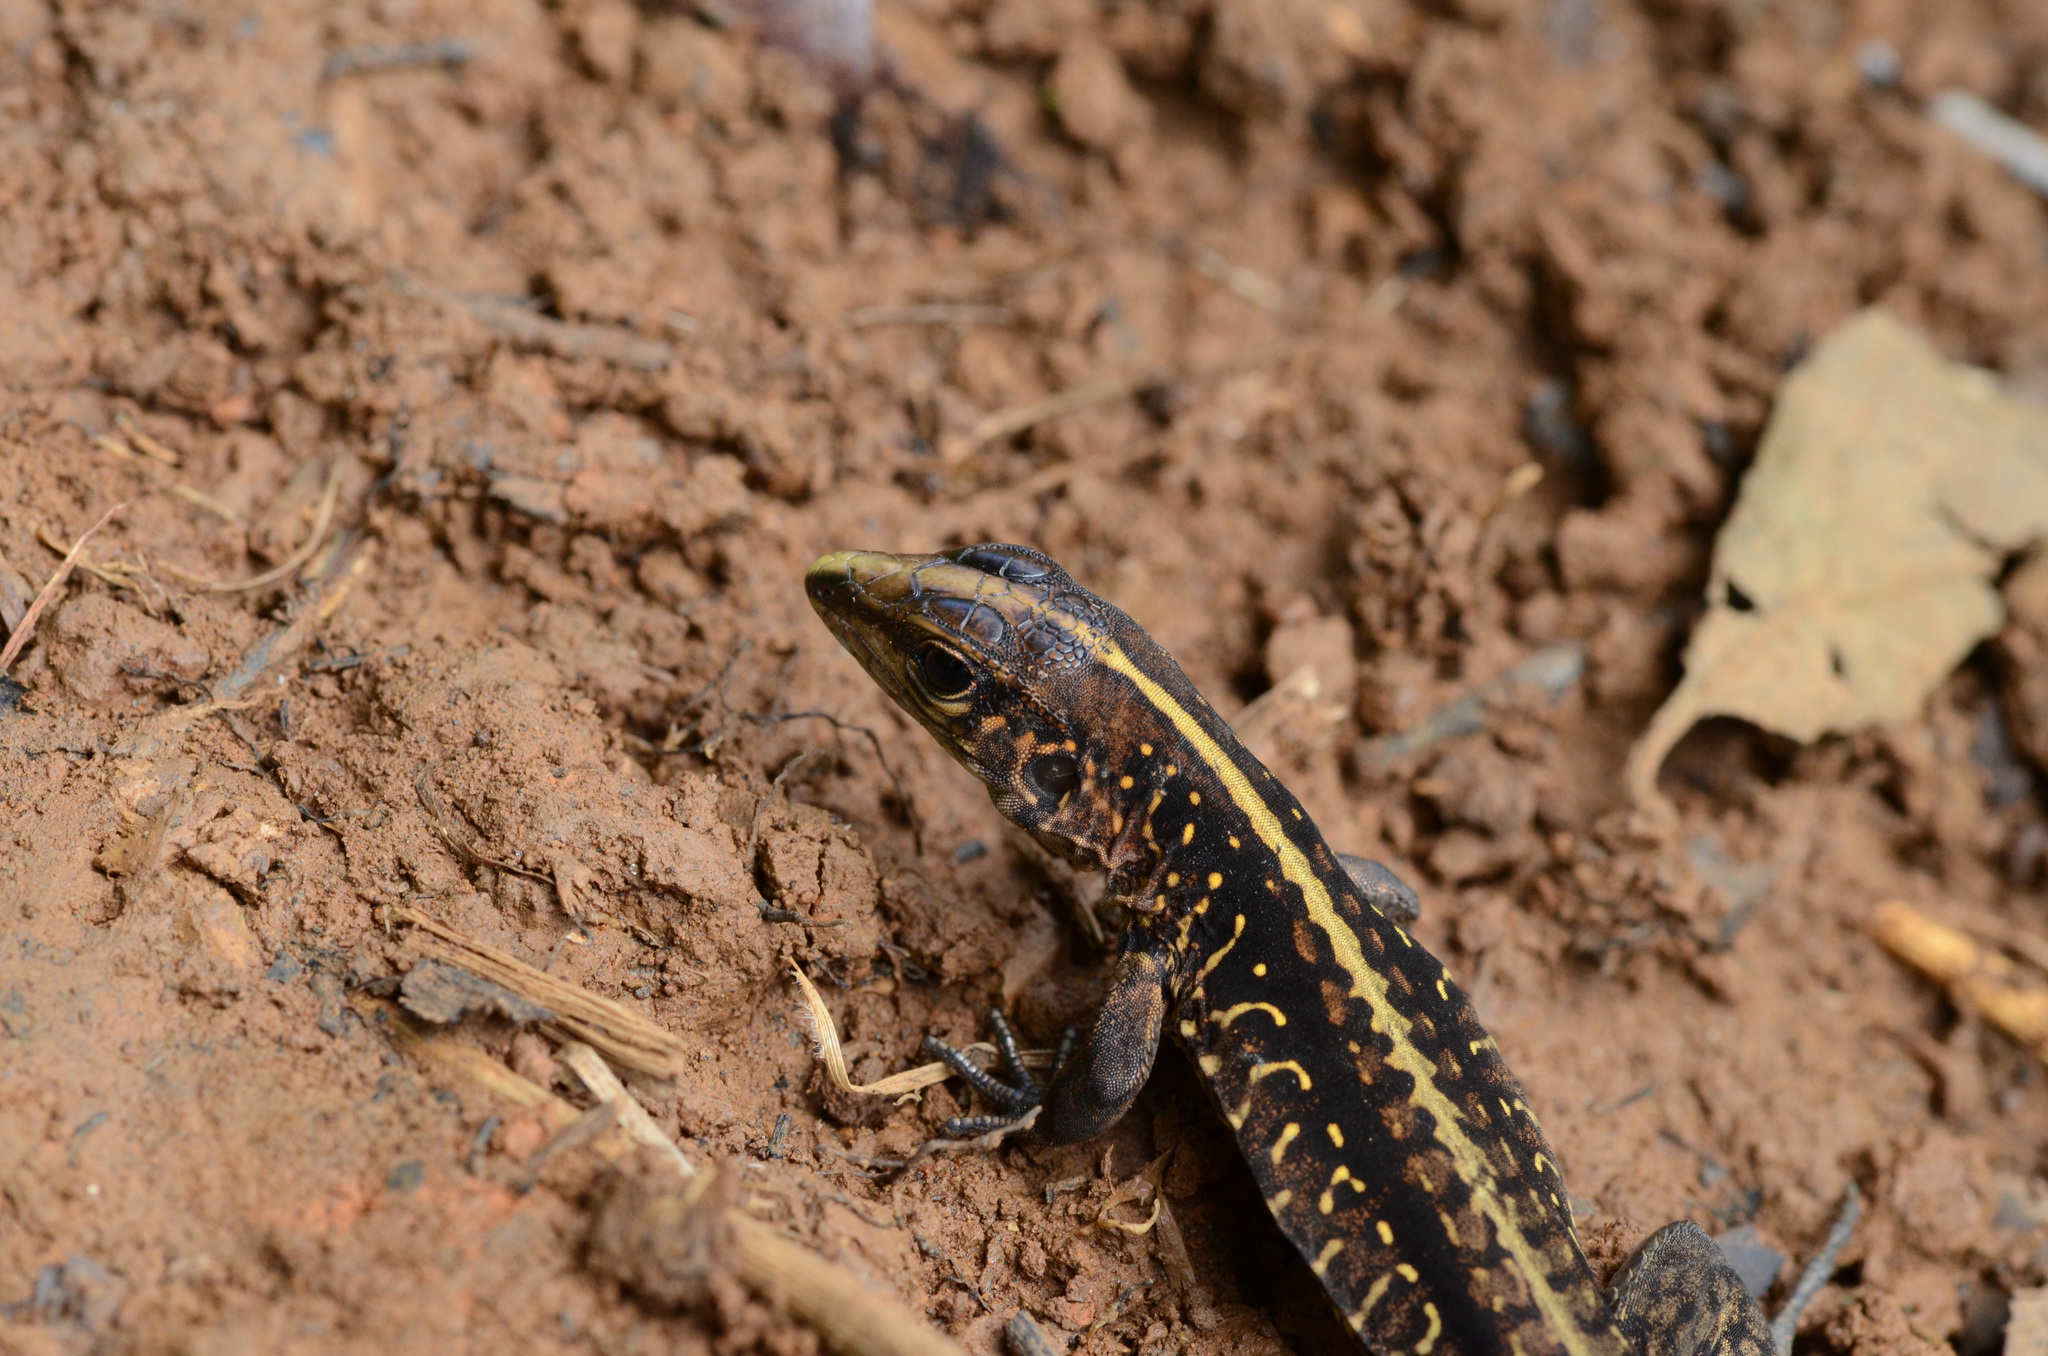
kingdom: Animalia
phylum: Chordata
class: Squamata
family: Teiidae
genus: Holcosus
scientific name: Holcosus festivus
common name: Middle american ameiva
